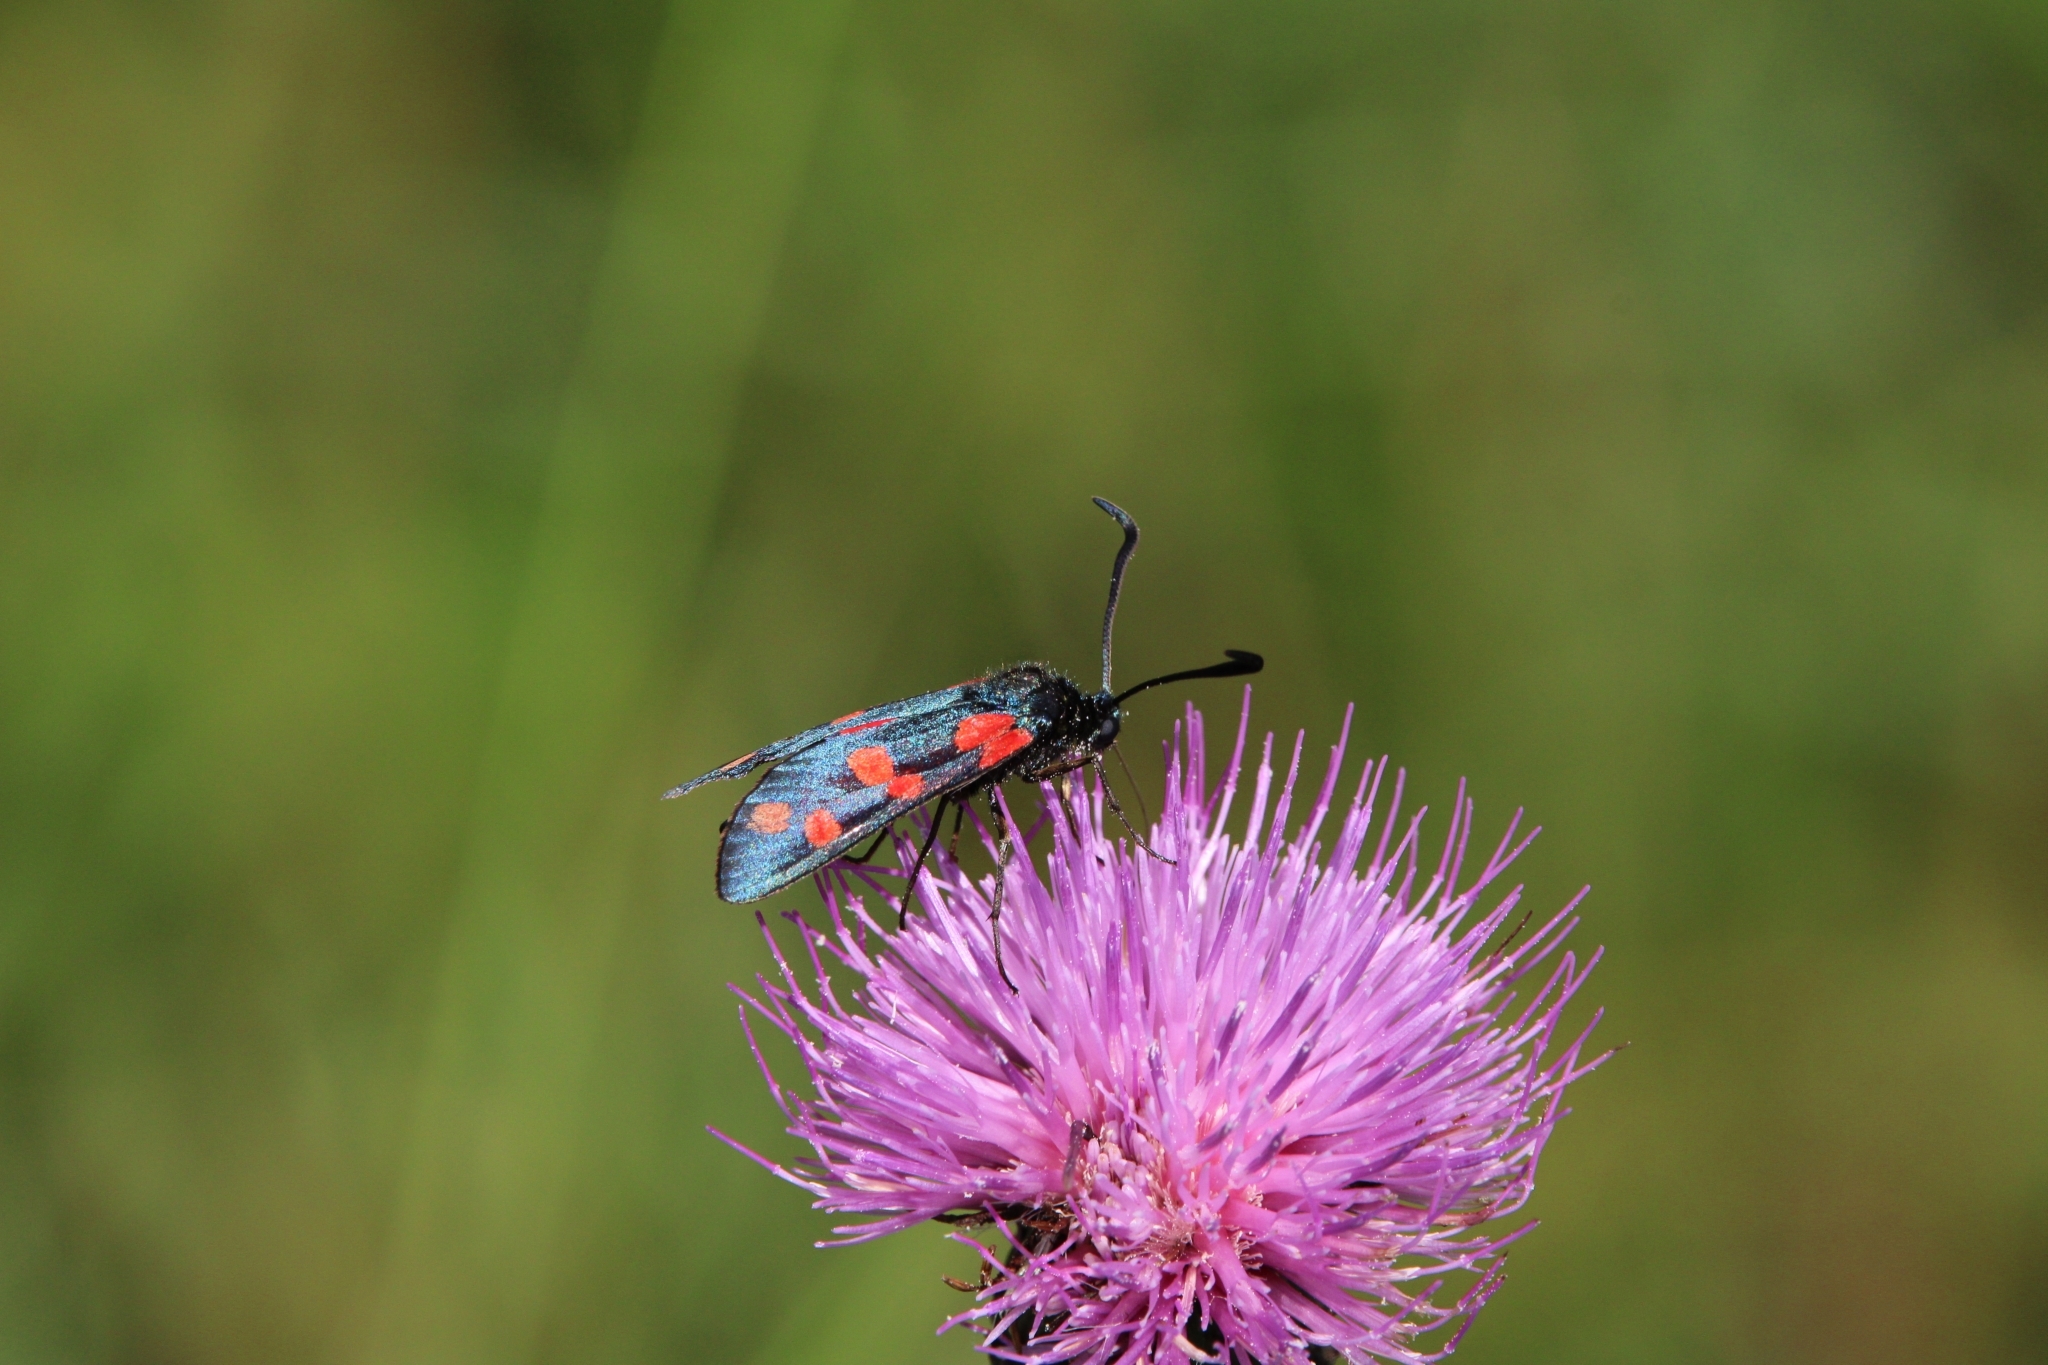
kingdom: Animalia
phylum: Arthropoda
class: Insecta
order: Lepidoptera
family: Zygaenidae
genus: Zygaena
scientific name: Zygaena filipendulae
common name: Six-spot burnet
